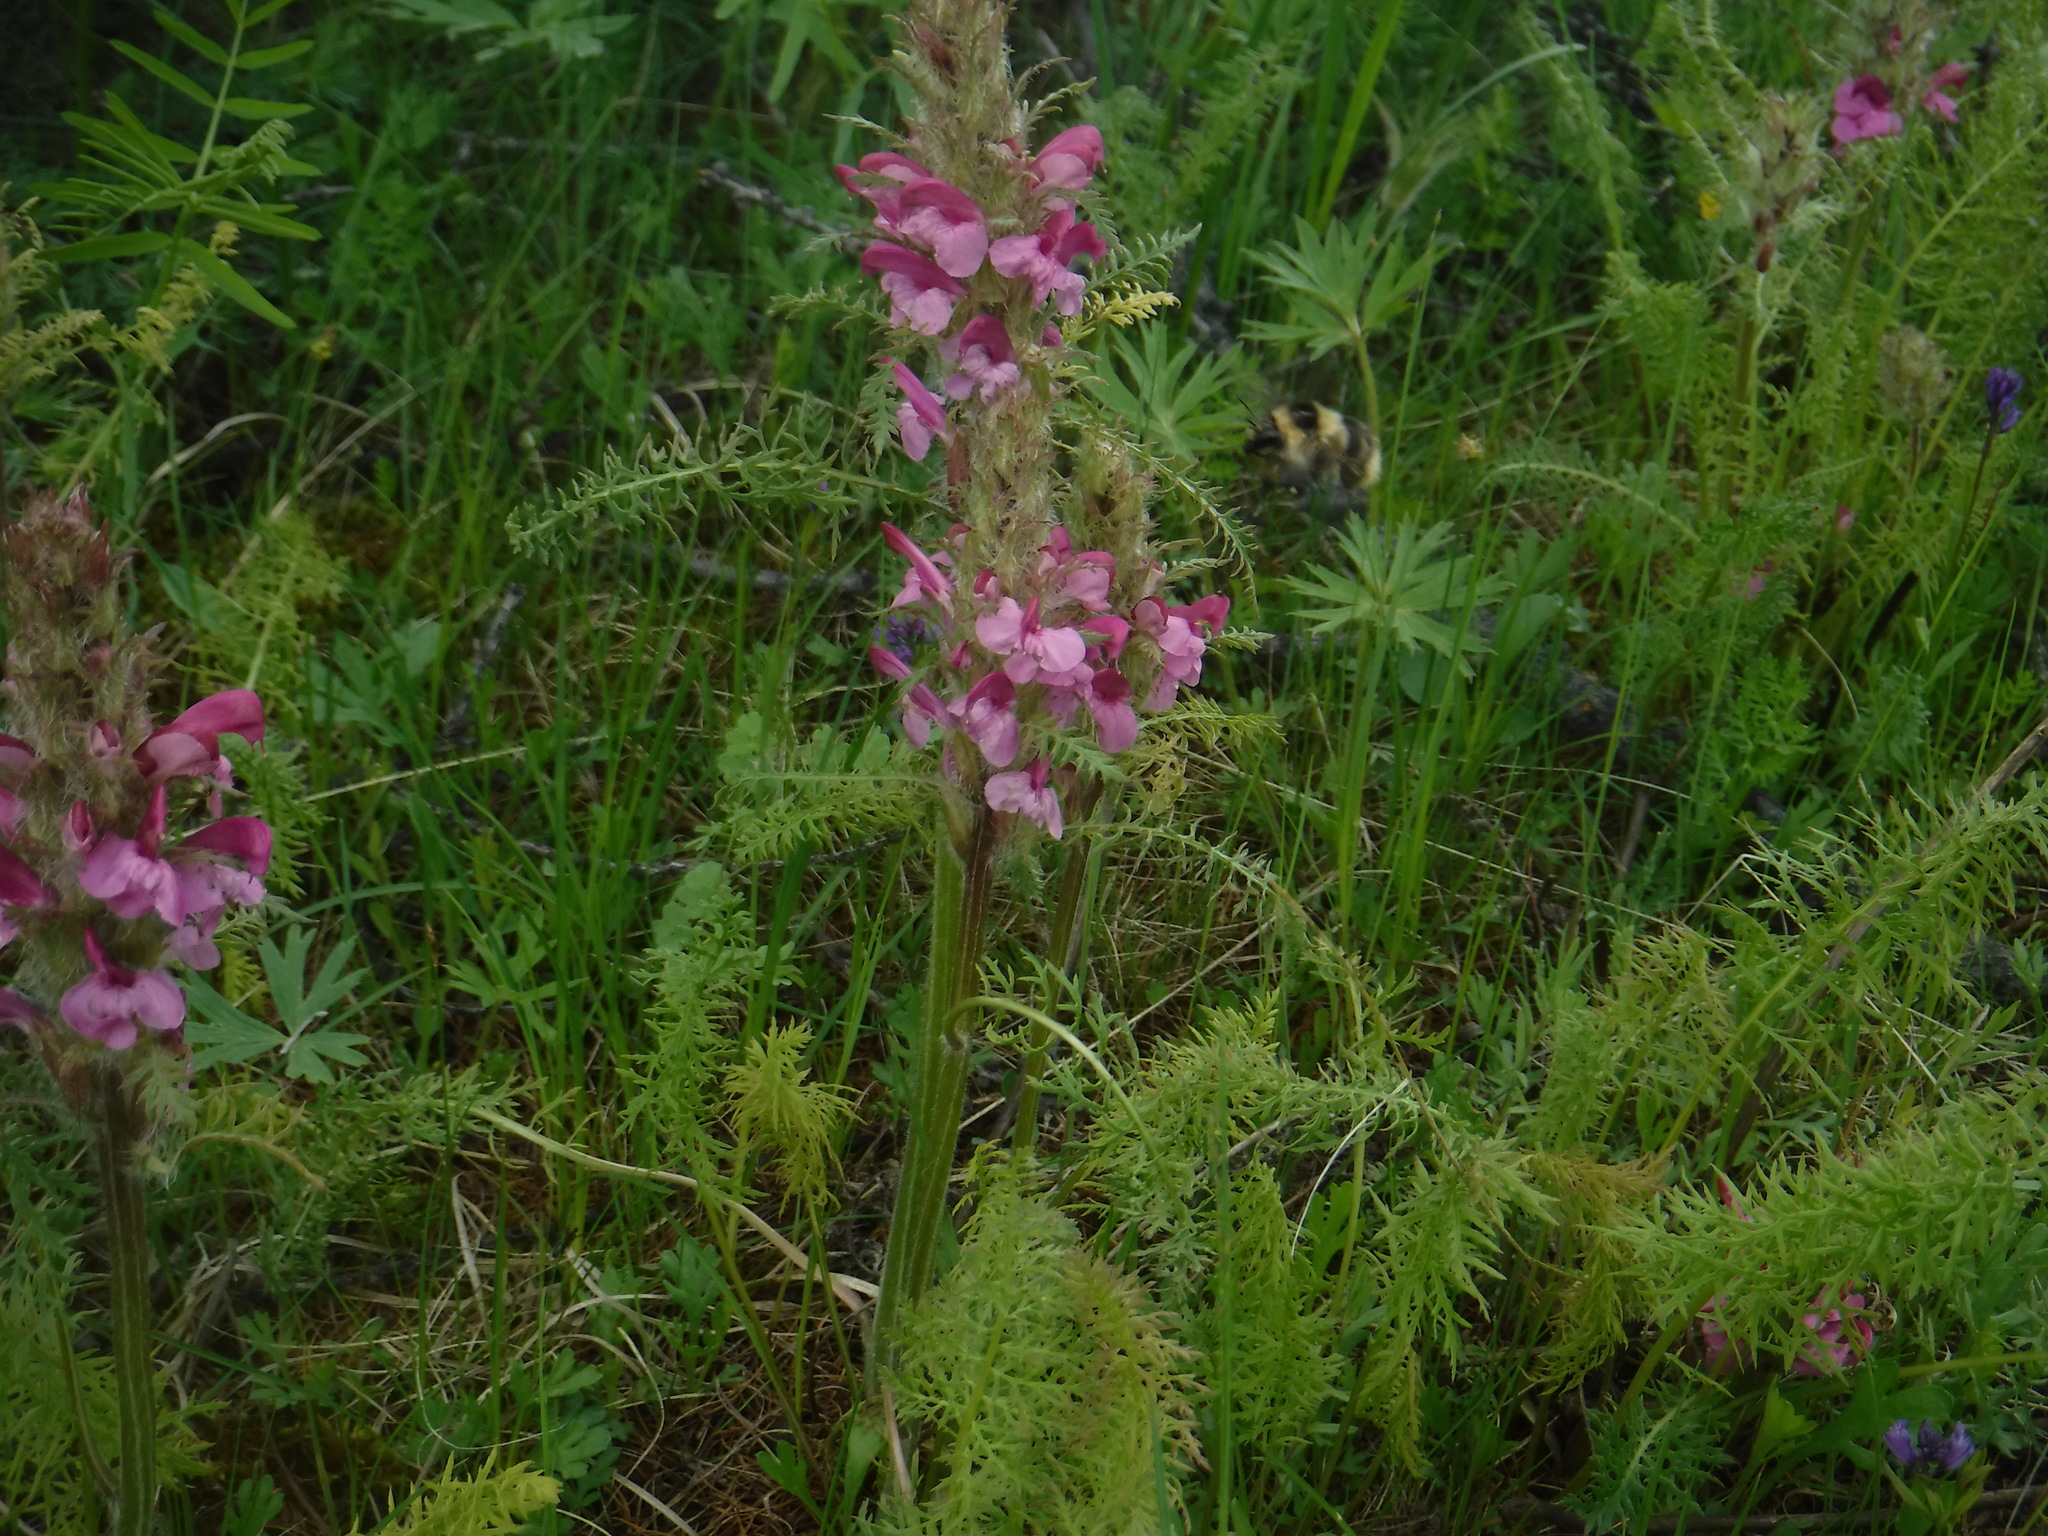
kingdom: Plantae
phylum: Tracheophyta
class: Magnoliopsida
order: Lamiales
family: Orobanchaceae
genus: Pedicularis
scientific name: Pedicularis rubens
